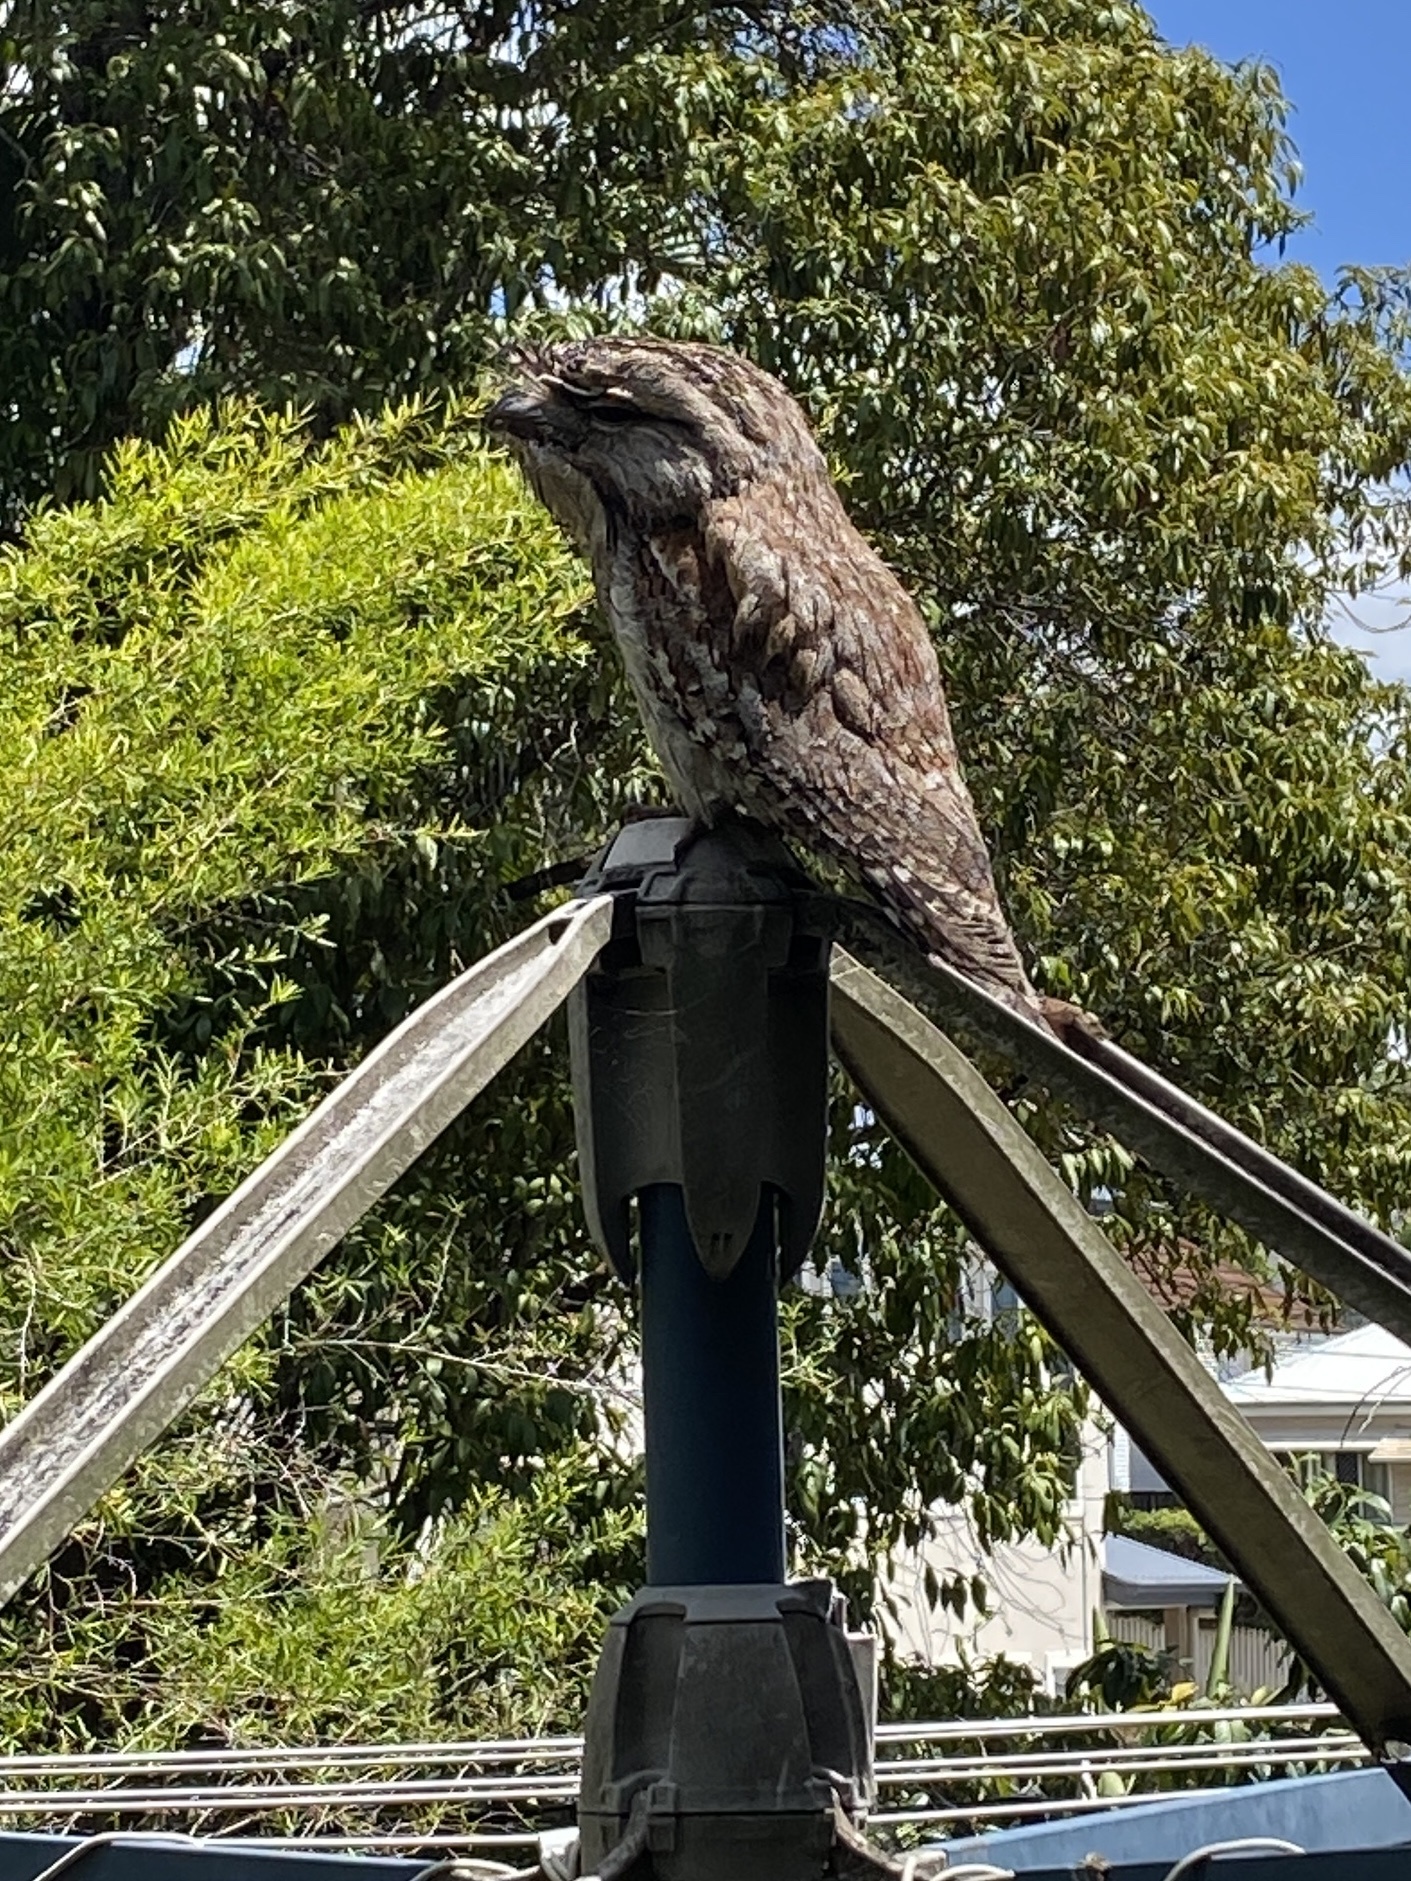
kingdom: Animalia
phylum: Chordata
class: Aves
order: Caprimulgiformes
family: Podargidae
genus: Podargus
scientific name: Podargus strigoides
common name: Tawny frogmouth
